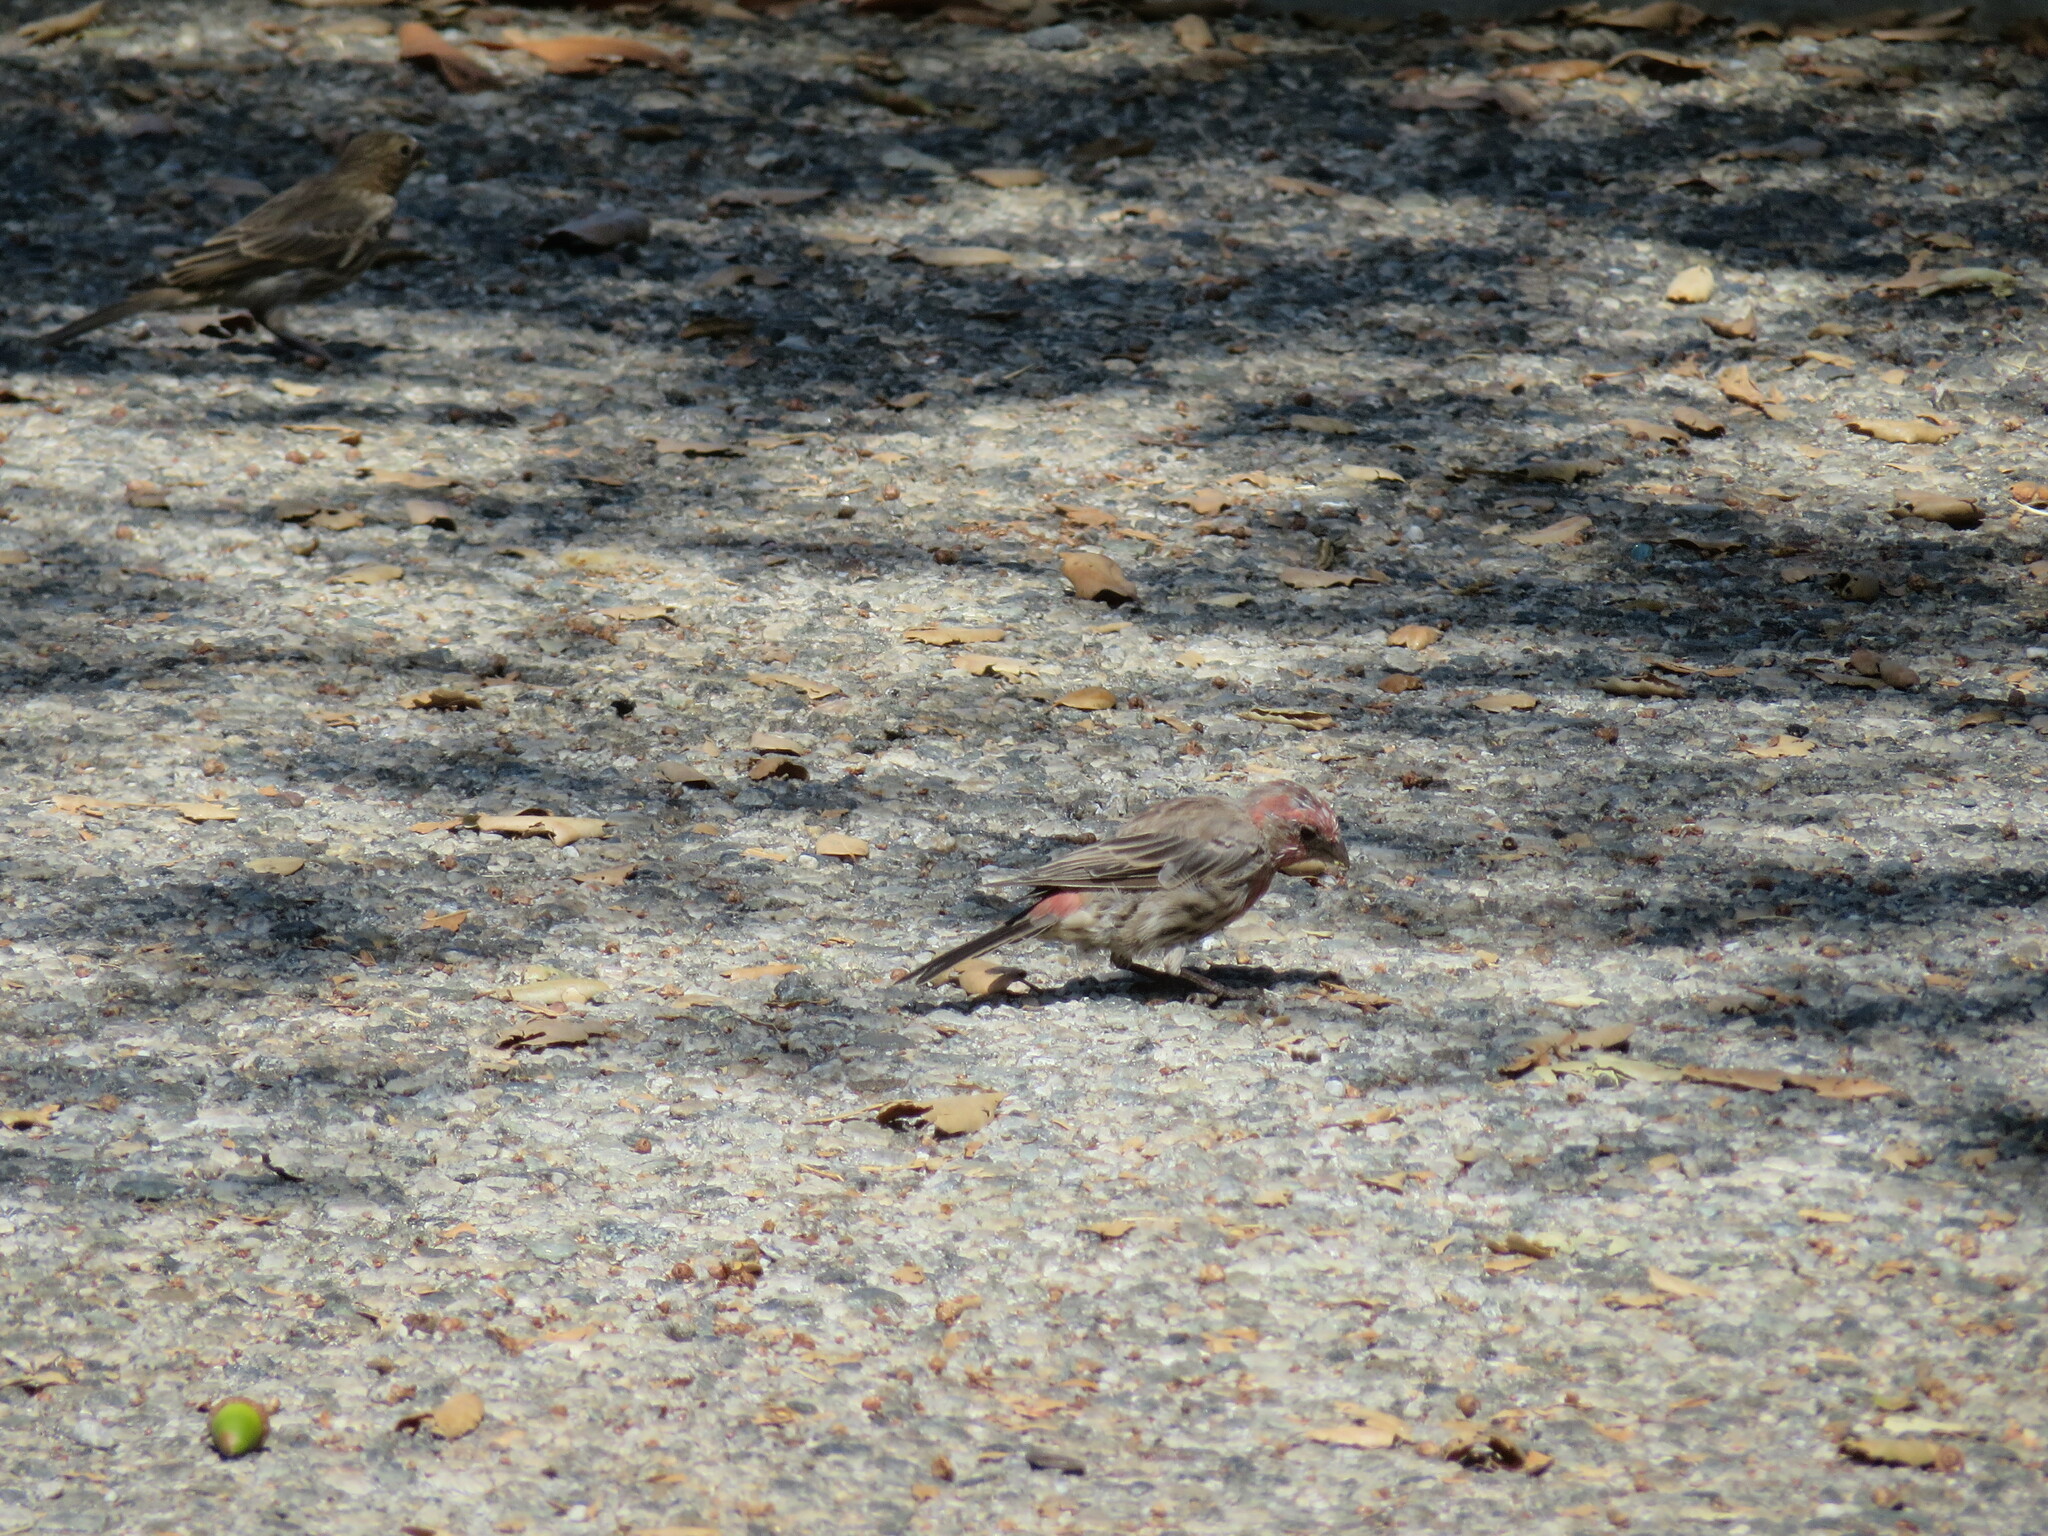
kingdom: Animalia
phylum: Chordata
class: Aves
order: Passeriformes
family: Fringillidae
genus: Haemorhous
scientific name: Haemorhous mexicanus
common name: House finch
